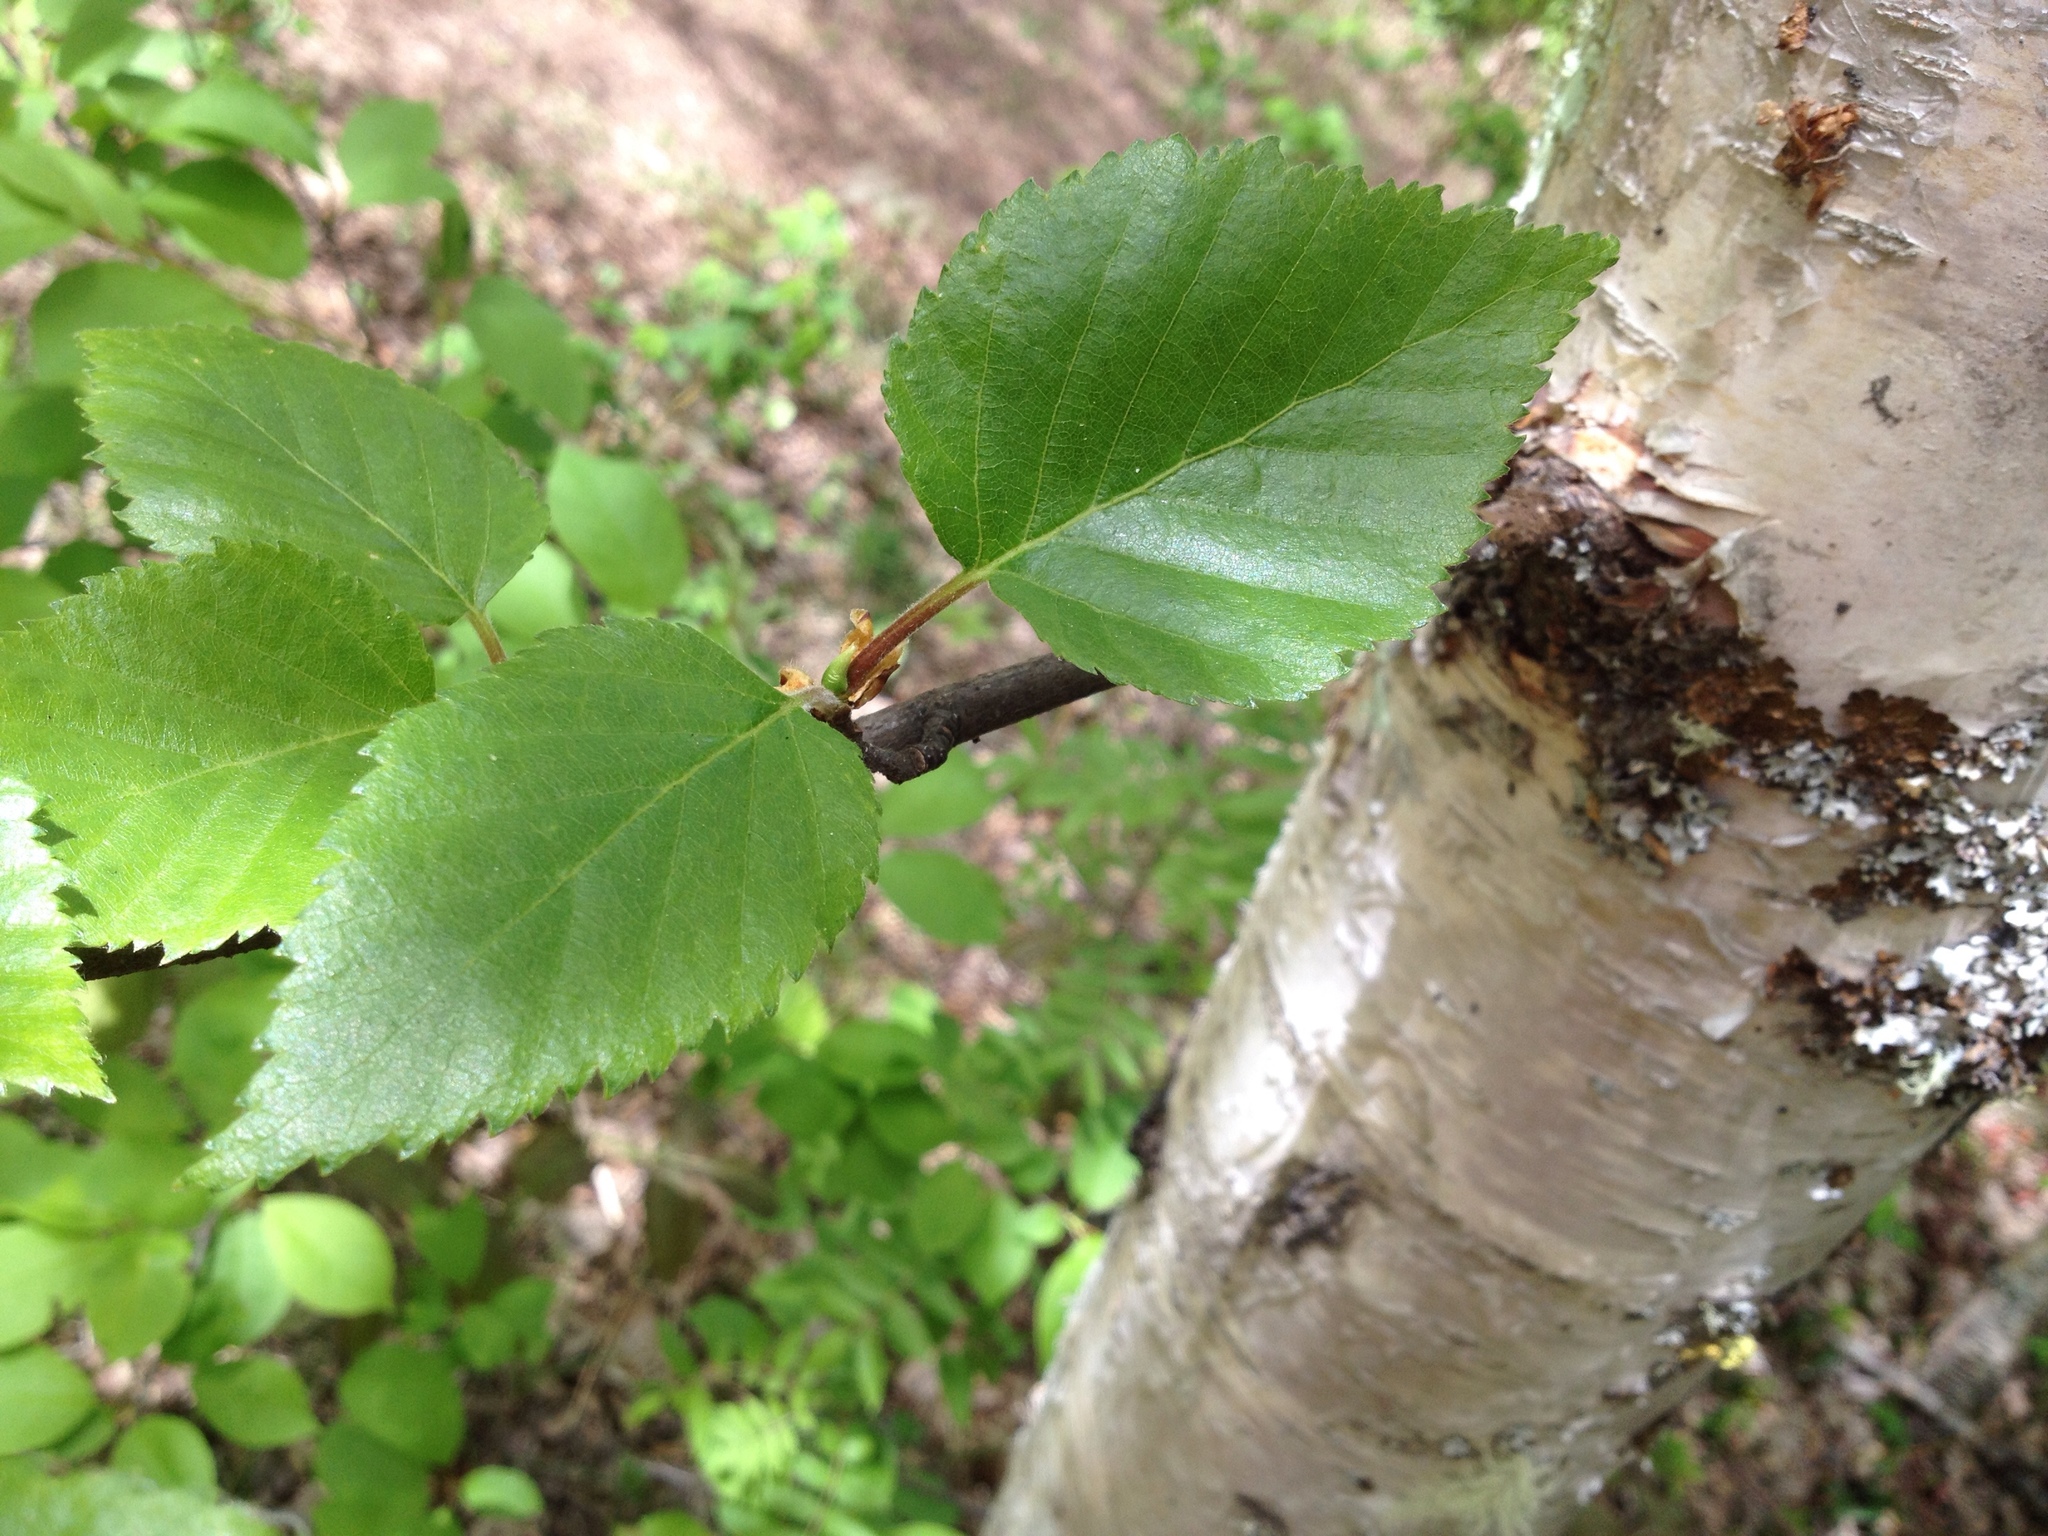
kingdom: Plantae
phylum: Tracheophyta
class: Magnoliopsida
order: Fagales
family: Betulaceae
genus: Betula
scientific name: Betula papyrifera
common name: Paper birch
